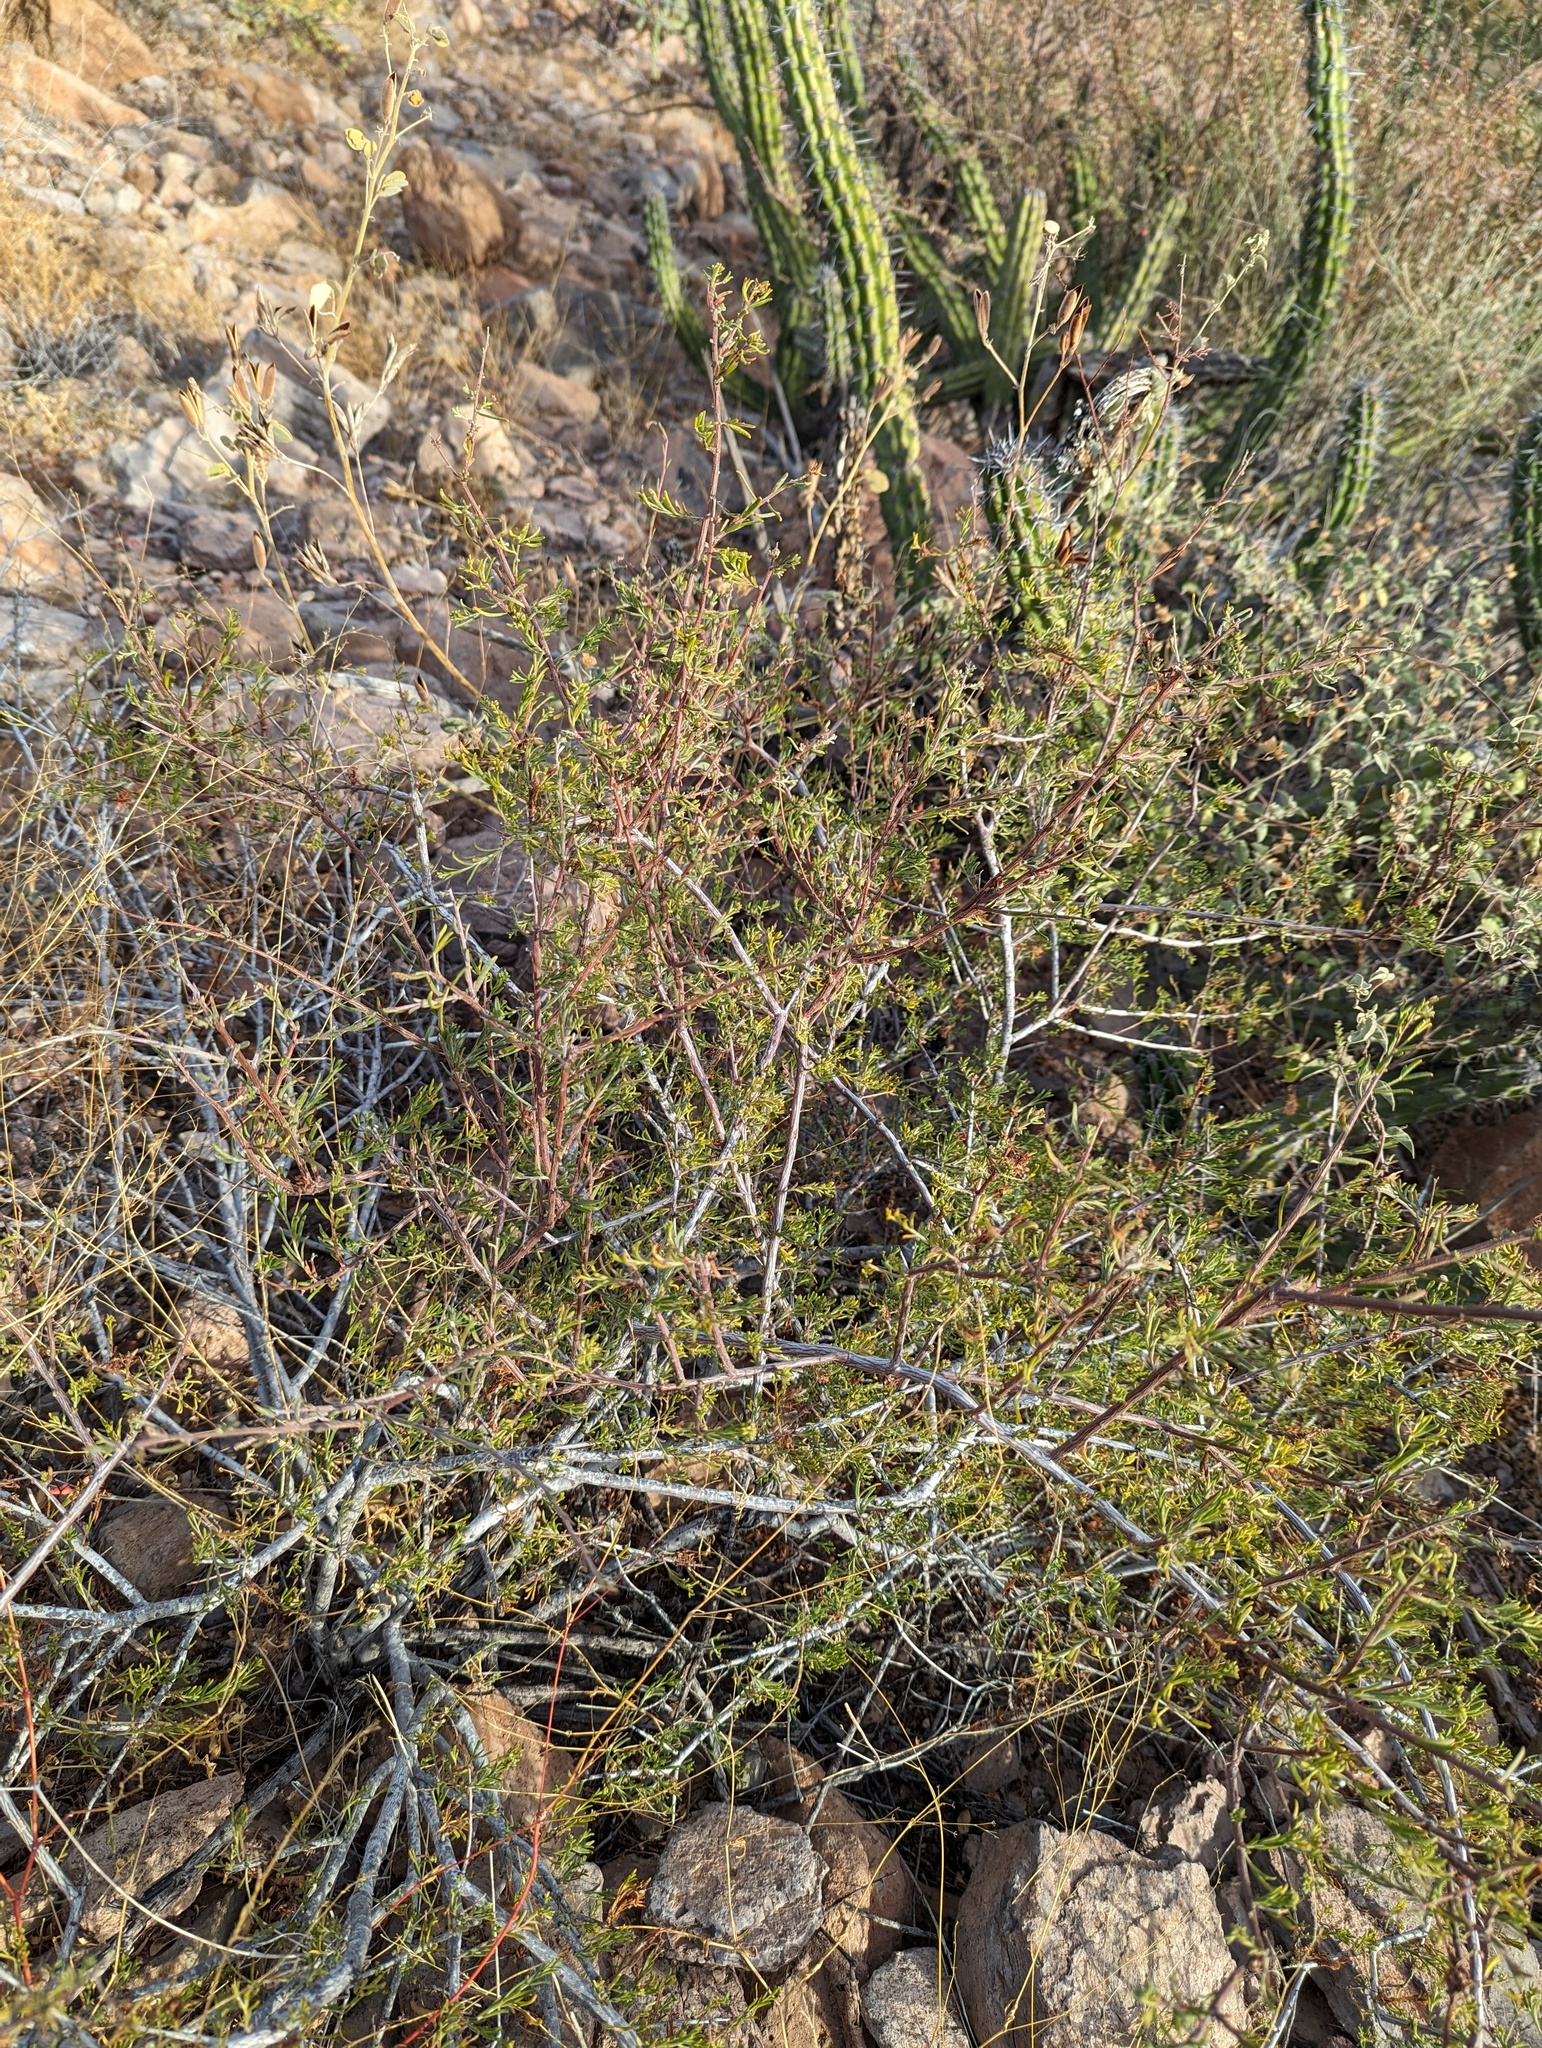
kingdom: Plantae
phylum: Tracheophyta
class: Magnoliopsida
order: Zygophyllales
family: Krameriaceae
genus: Krameria
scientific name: Krameria erecta
